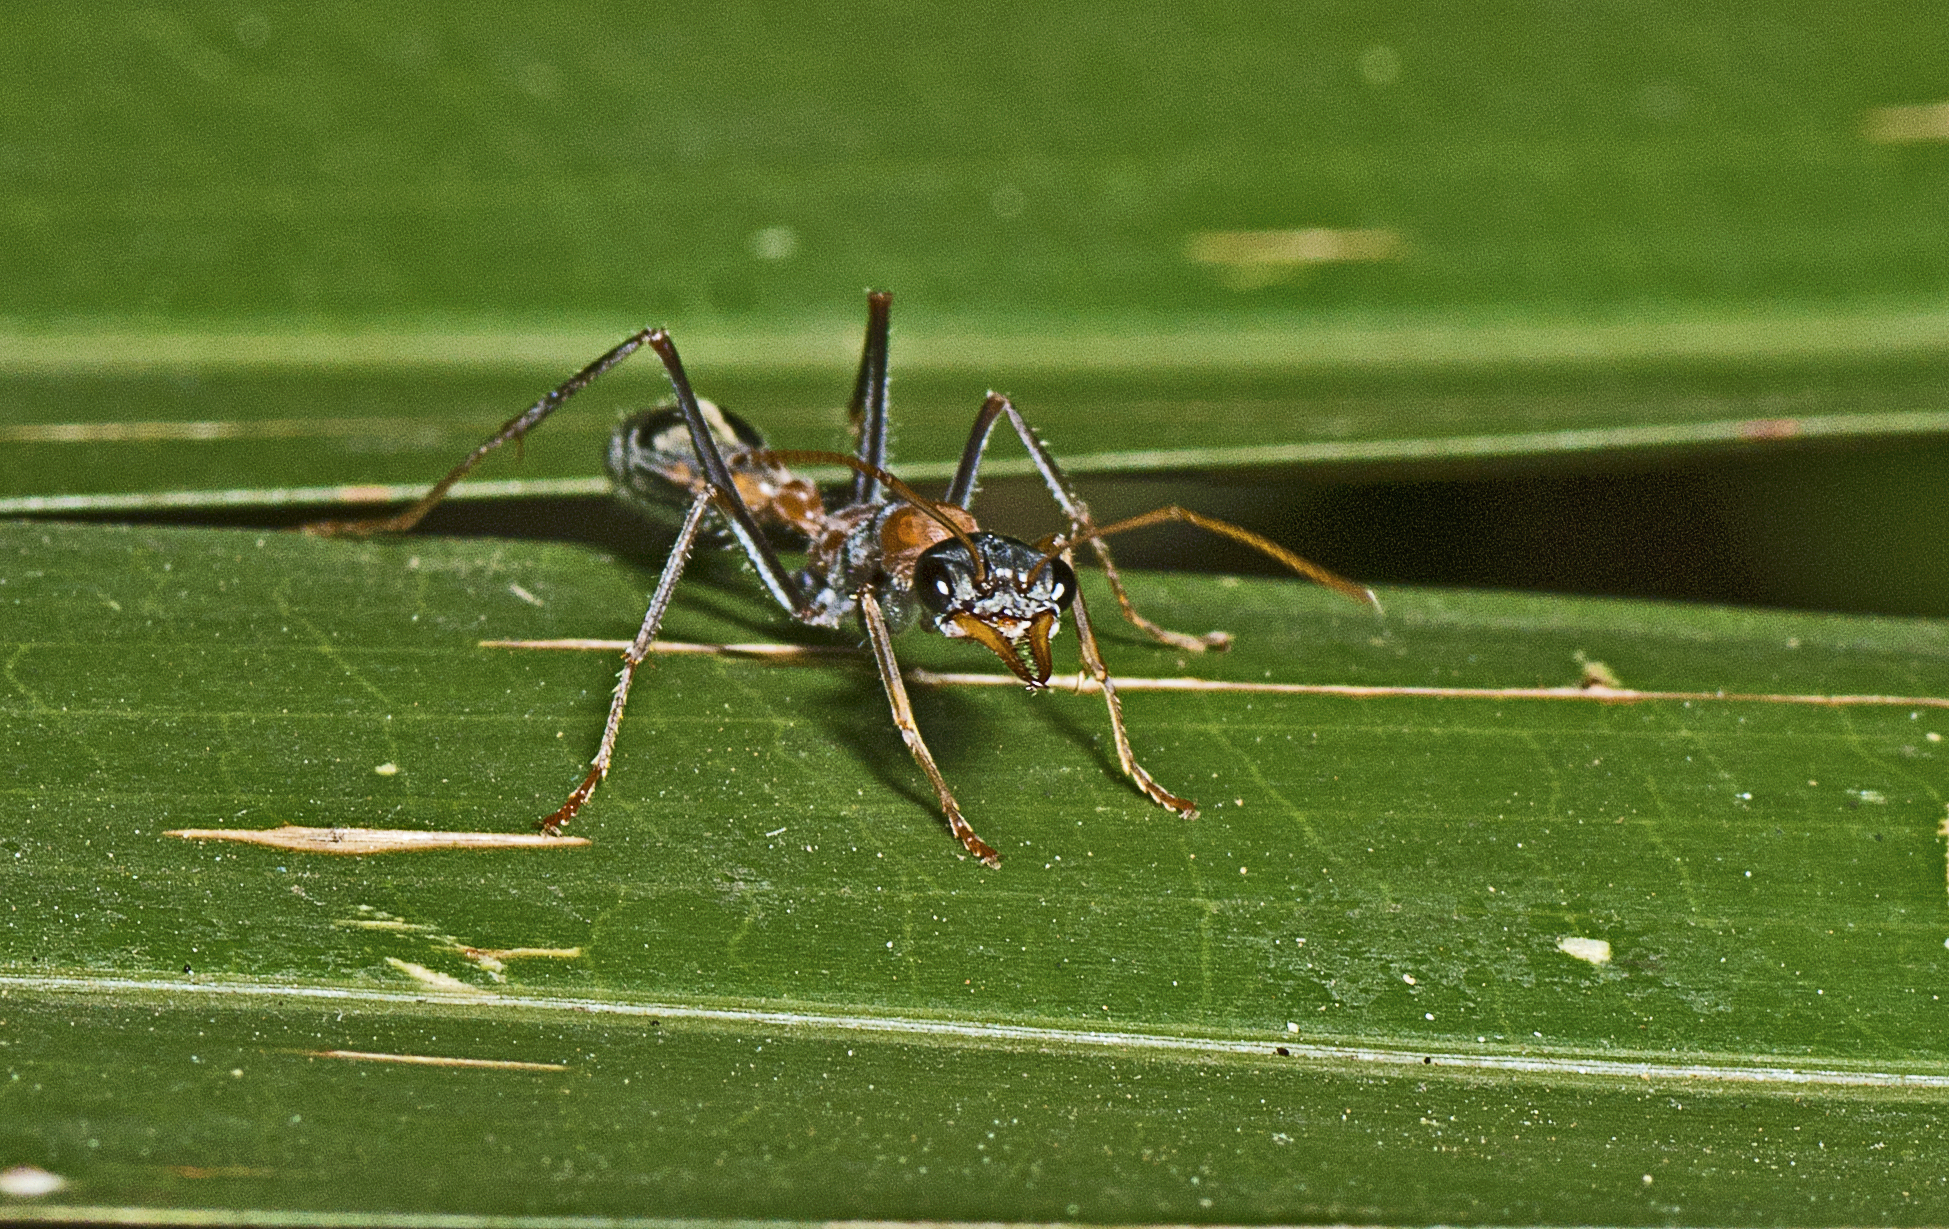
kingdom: Animalia
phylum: Arthropoda
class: Insecta
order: Hymenoptera
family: Formicidae
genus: Myrmecia
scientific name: Myrmecia nigrocincta
